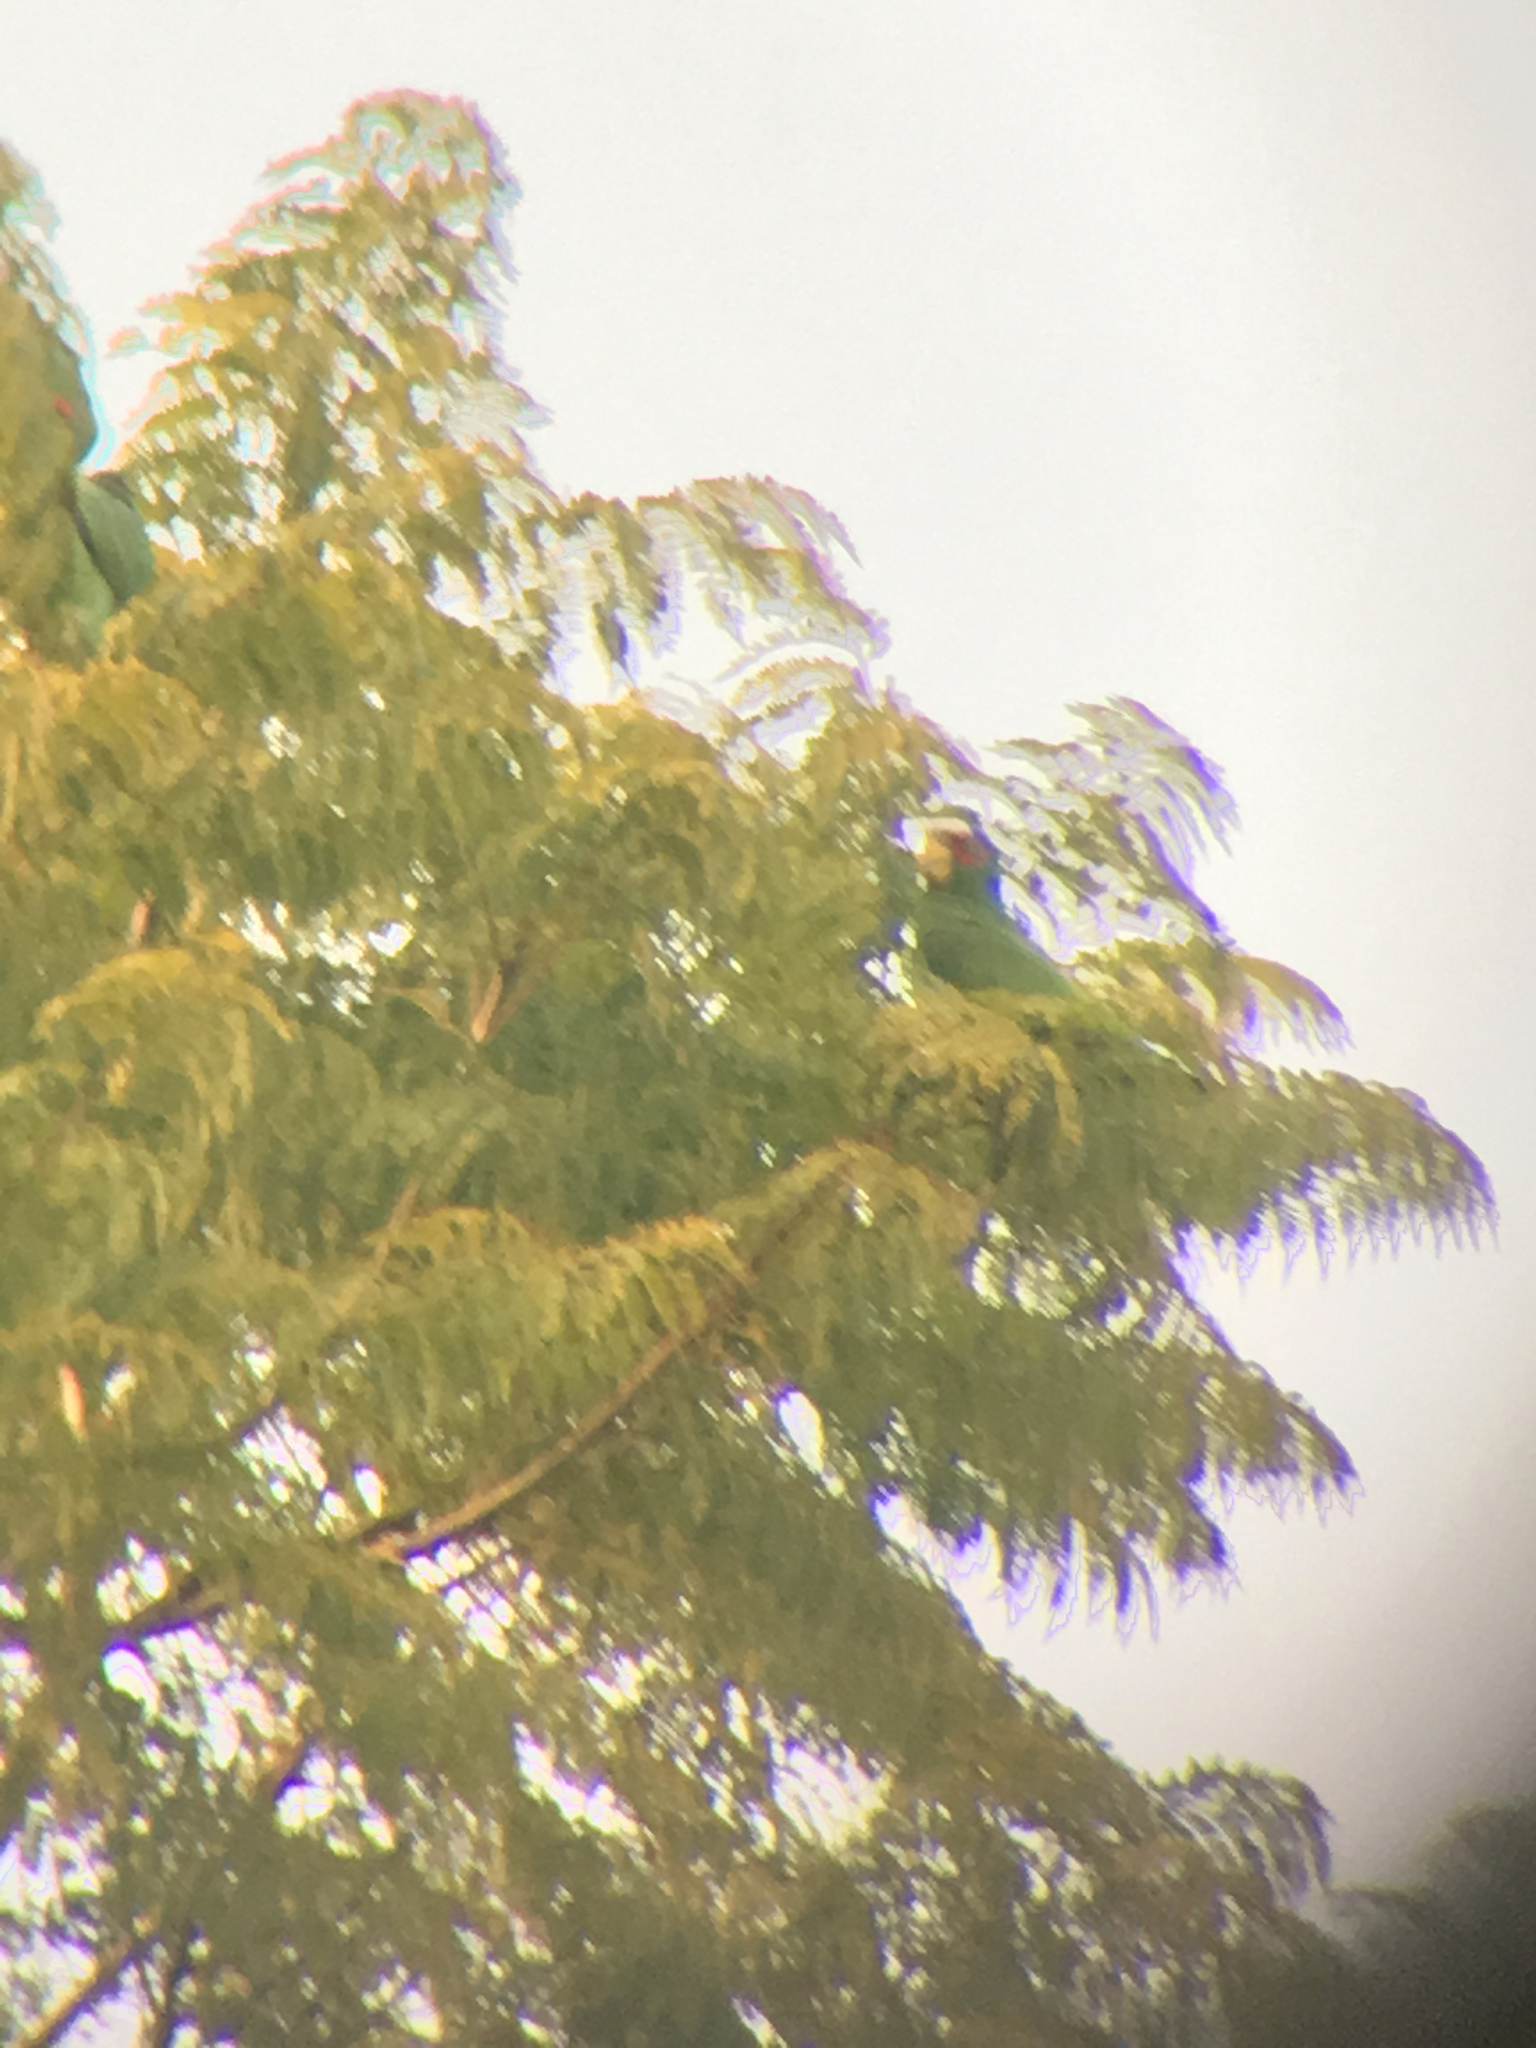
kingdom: Animalia
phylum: Chordata
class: Aves
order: Psittaciformes
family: Psittacidae
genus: Amazona
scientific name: Amazona albifrons
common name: White-fronted amazon
